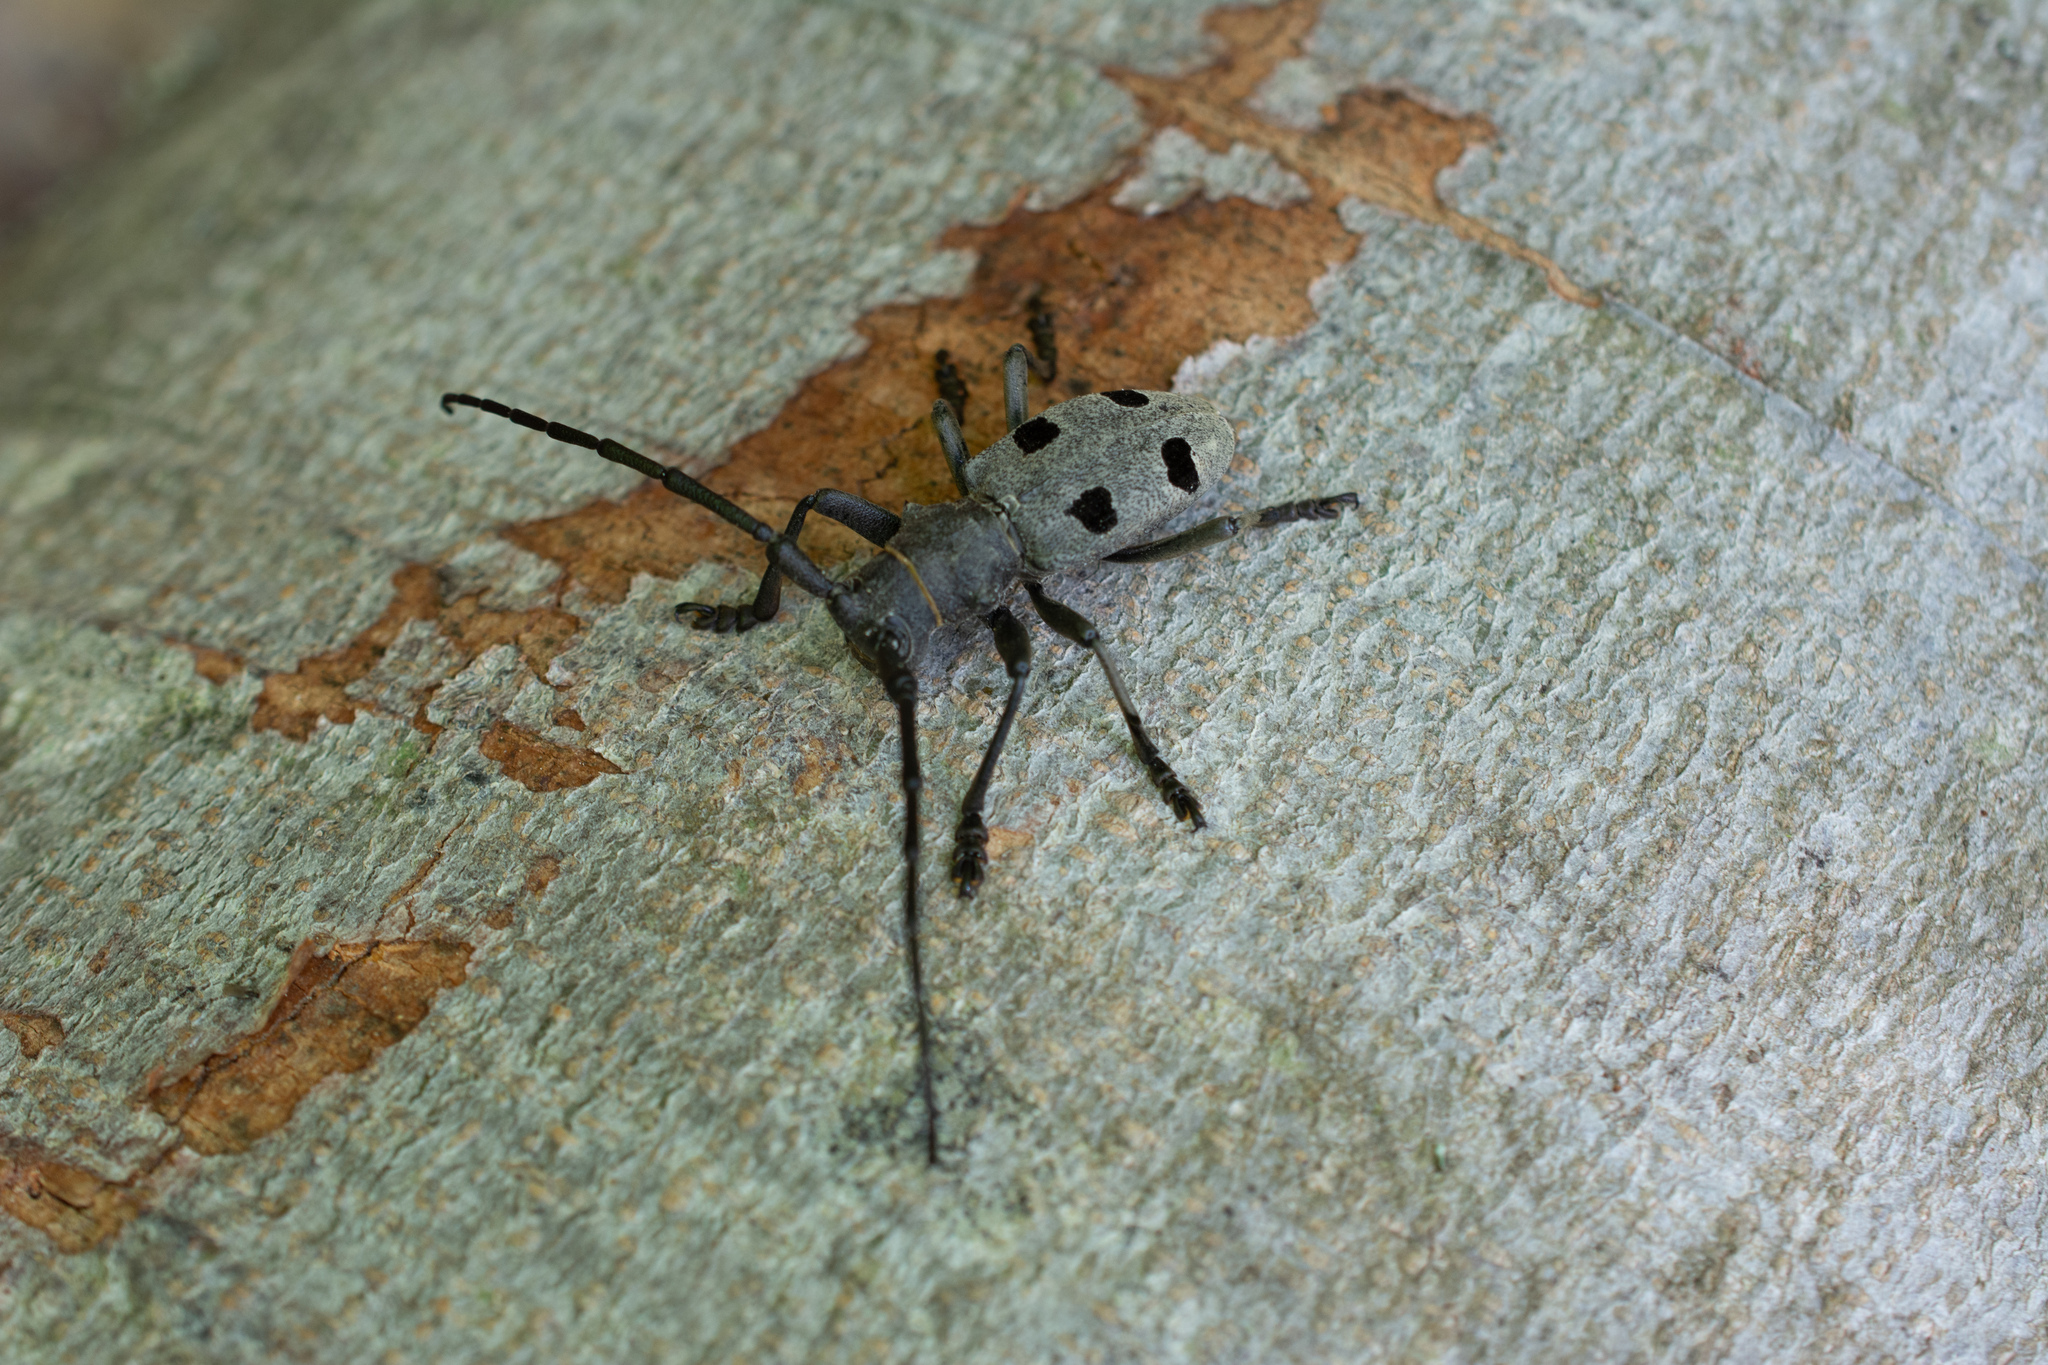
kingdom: Animalia
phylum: Arthropoda
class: Insecta
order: Coleoptera
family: Cerambycidae
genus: Morimus
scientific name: Morimus funereus
